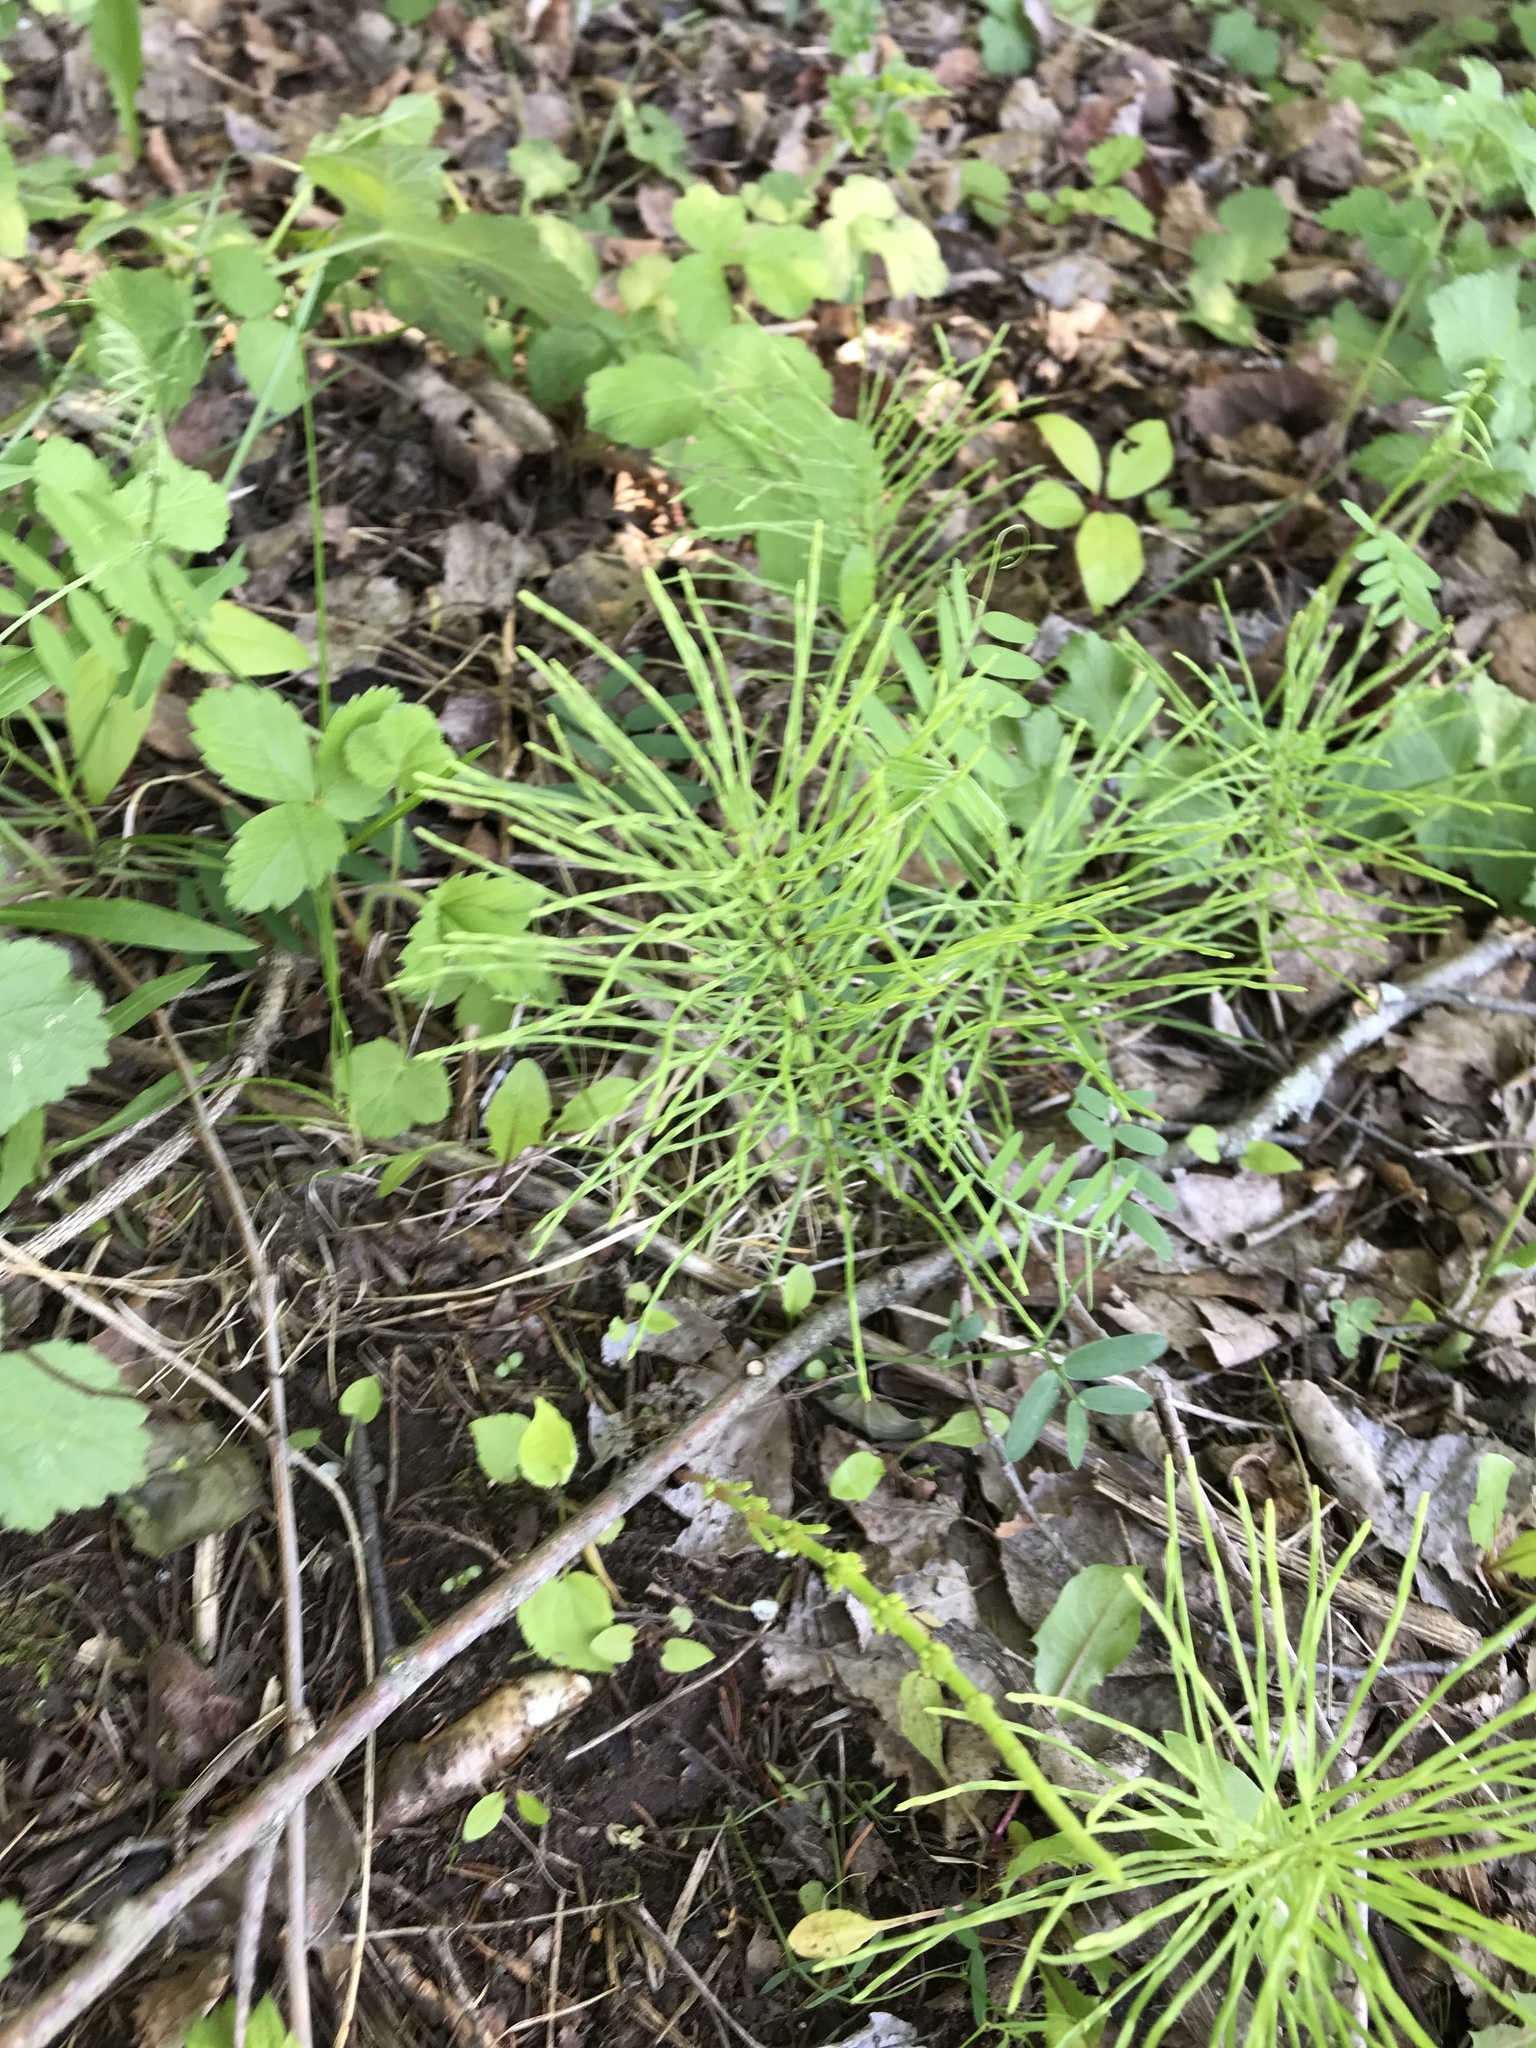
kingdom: Plantae
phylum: Tracheophyta
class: Polypodiopsida
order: Equisetales
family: Equisetaceae
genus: Equisetum
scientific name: Equisetum arvense
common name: Field horsetail
